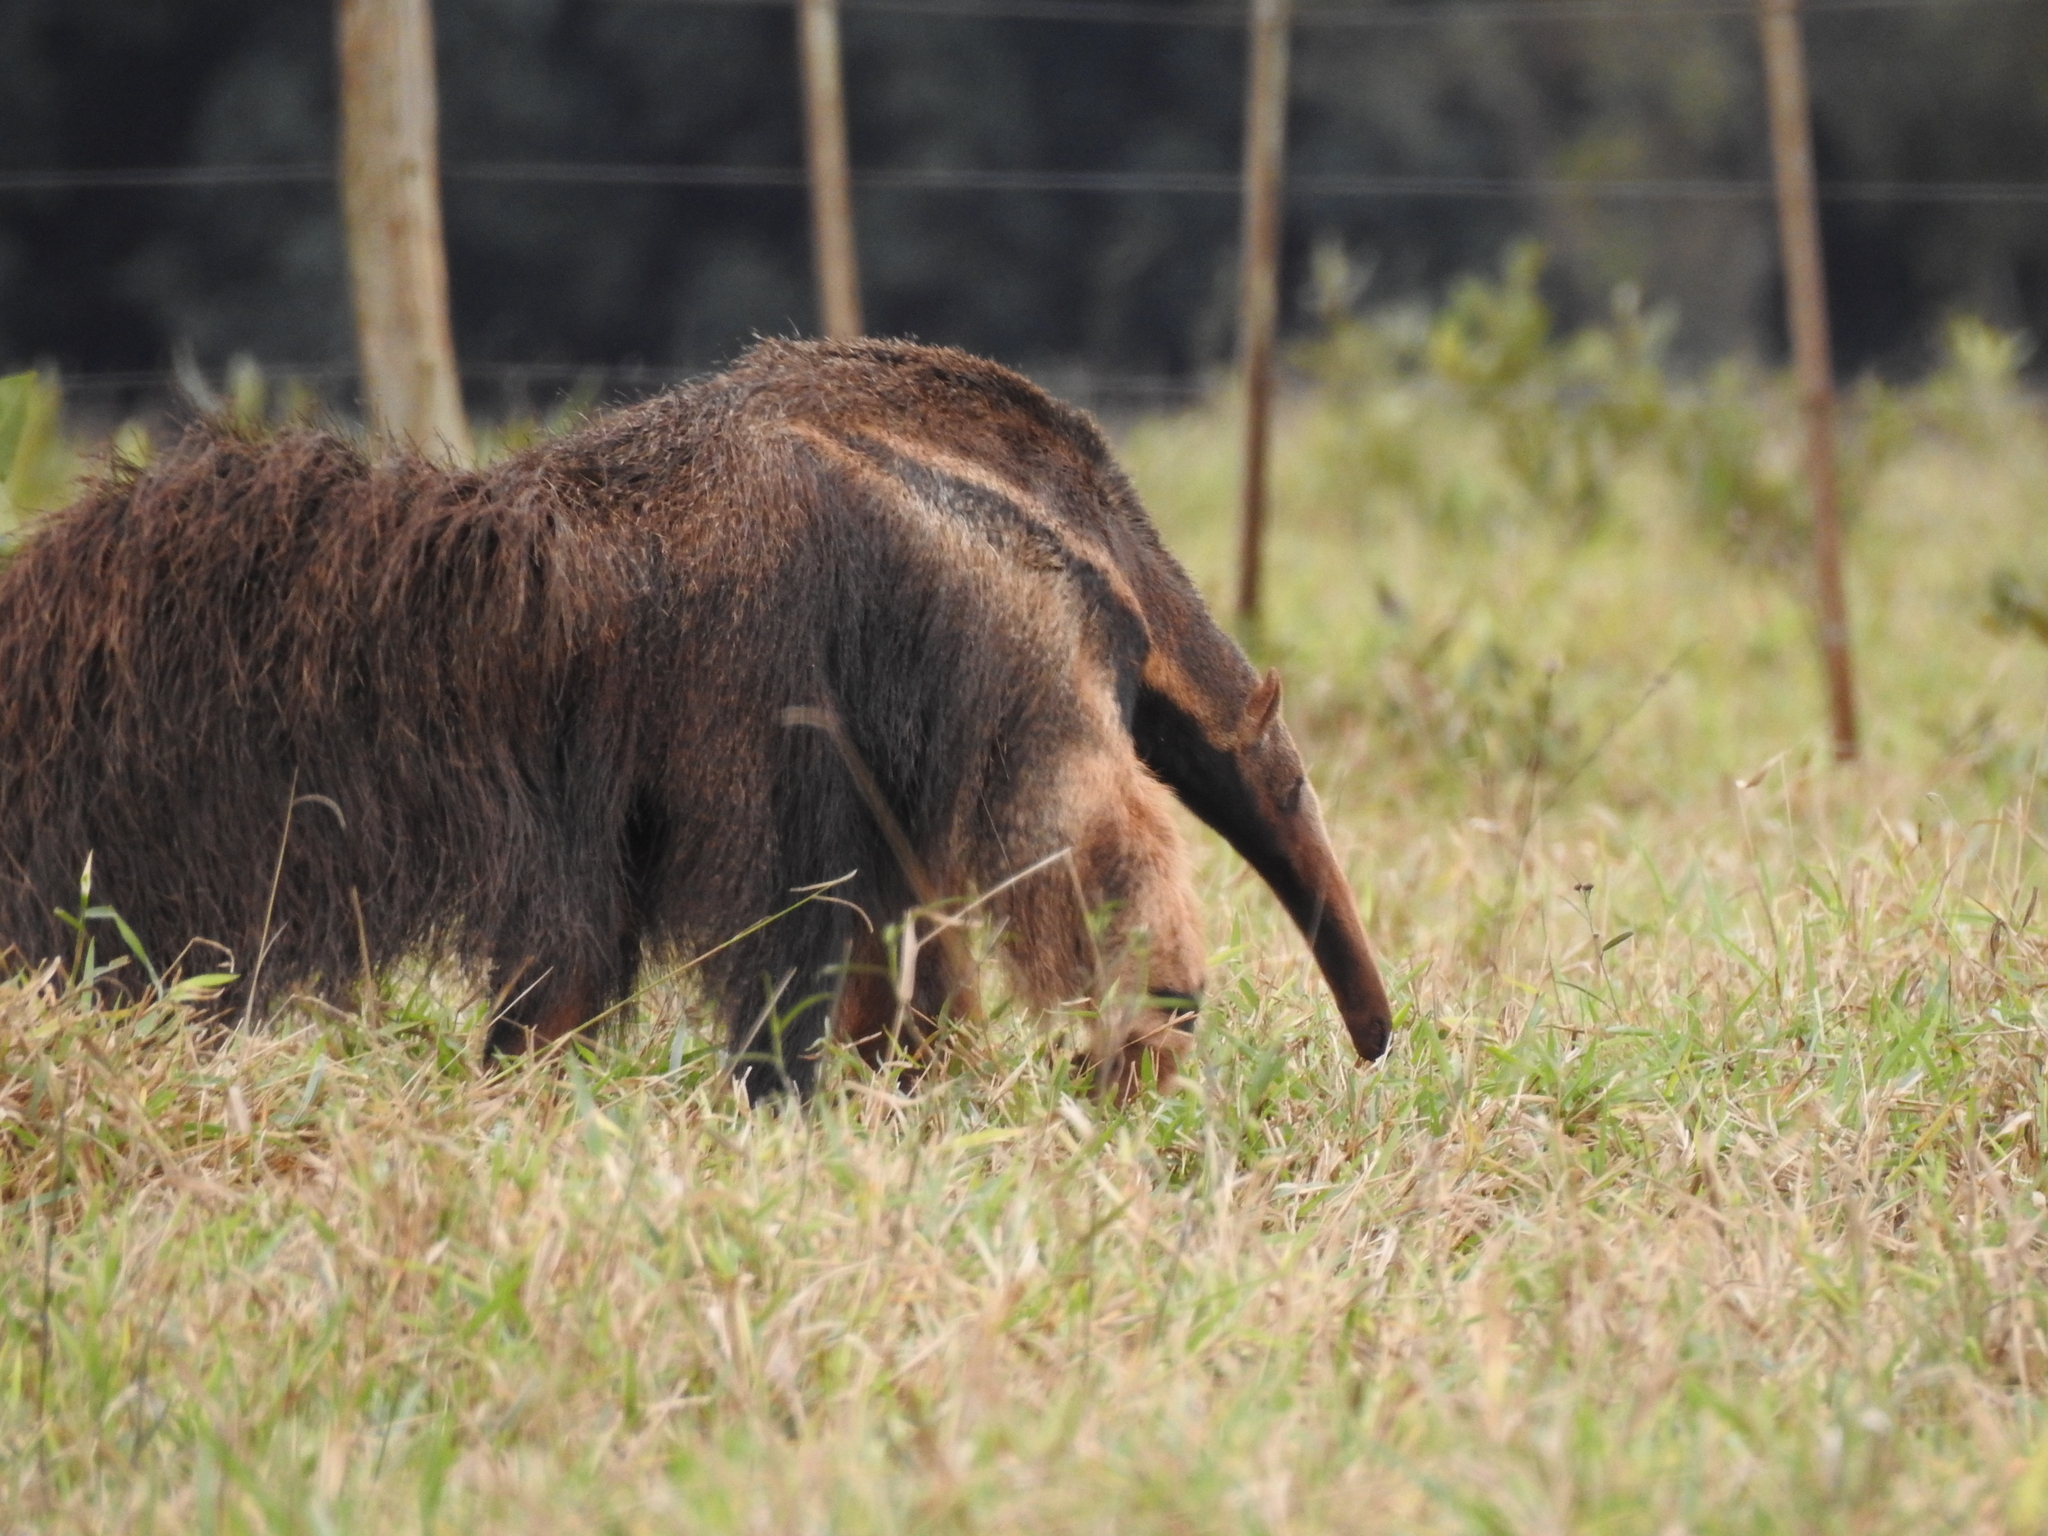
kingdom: Animalia
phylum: Chordata
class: Mammalia
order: Pilosa
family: Myrmecophagidae
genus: Myrmecophaga
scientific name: Myrmecophaga tridactyla
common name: Giant anteater
